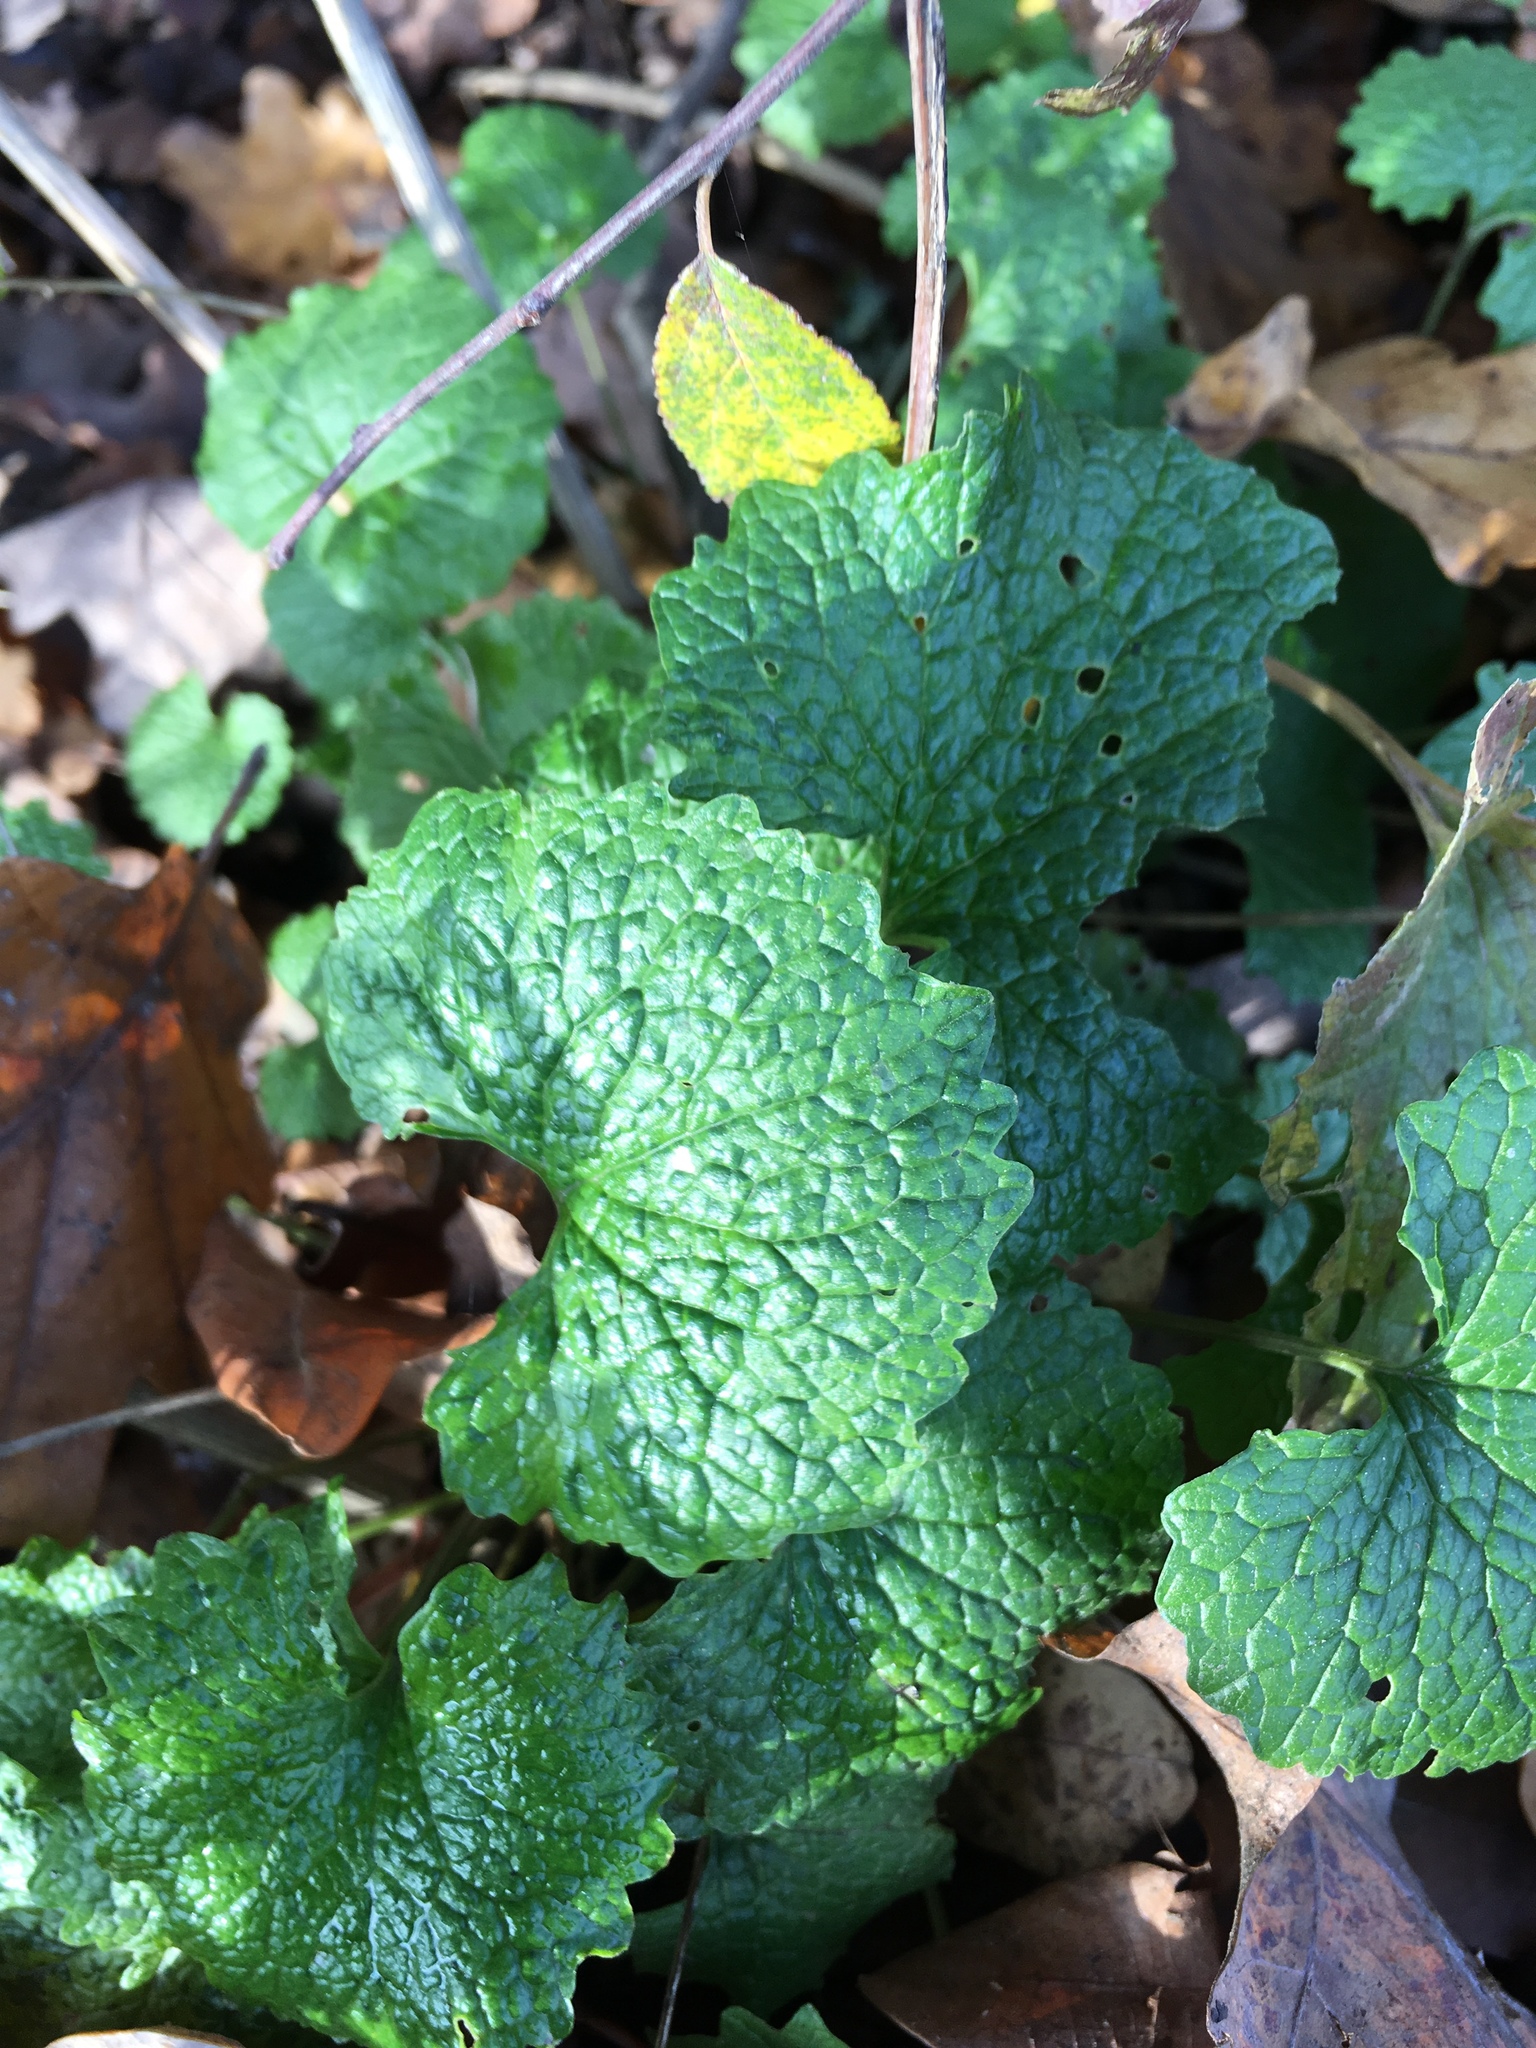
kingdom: Plantae
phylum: Tracheophyta
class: Magnoliopsida
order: Brassicales
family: Brassicaceae
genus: Alliaria
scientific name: Alliaria petiolata
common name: Garlic mustard
